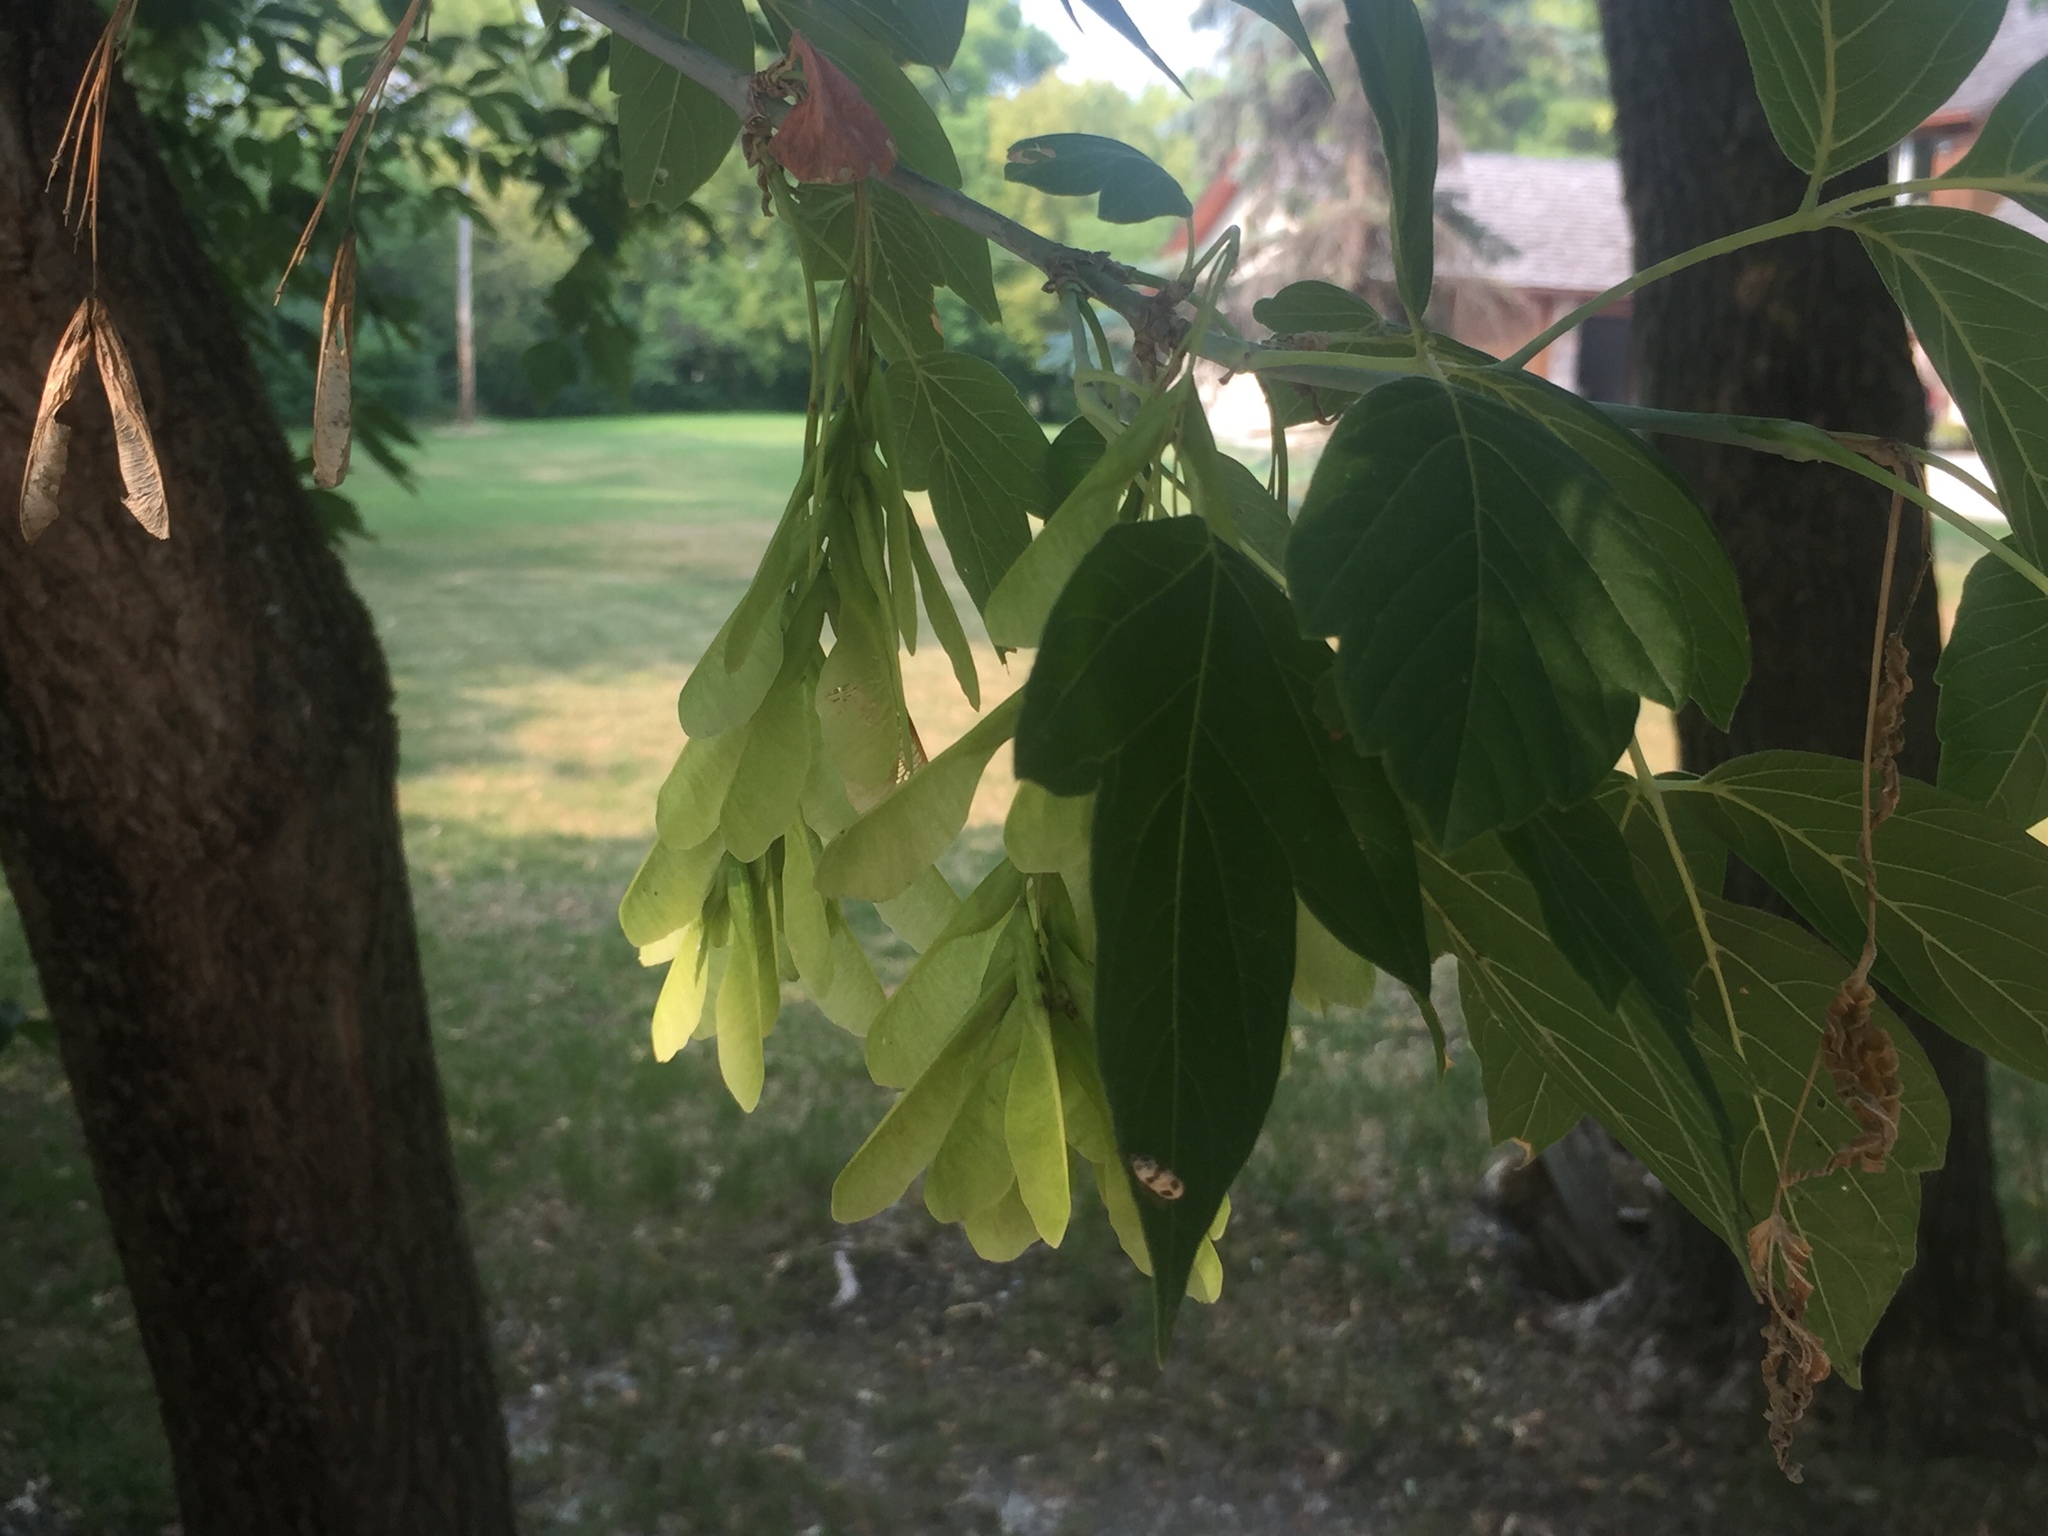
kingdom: Plantae
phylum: Tracheophyta
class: Magnoliopsida
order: Sapindales
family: Sapindaceae
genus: Acer
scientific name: Acer negundo
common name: Ashleaf maple
